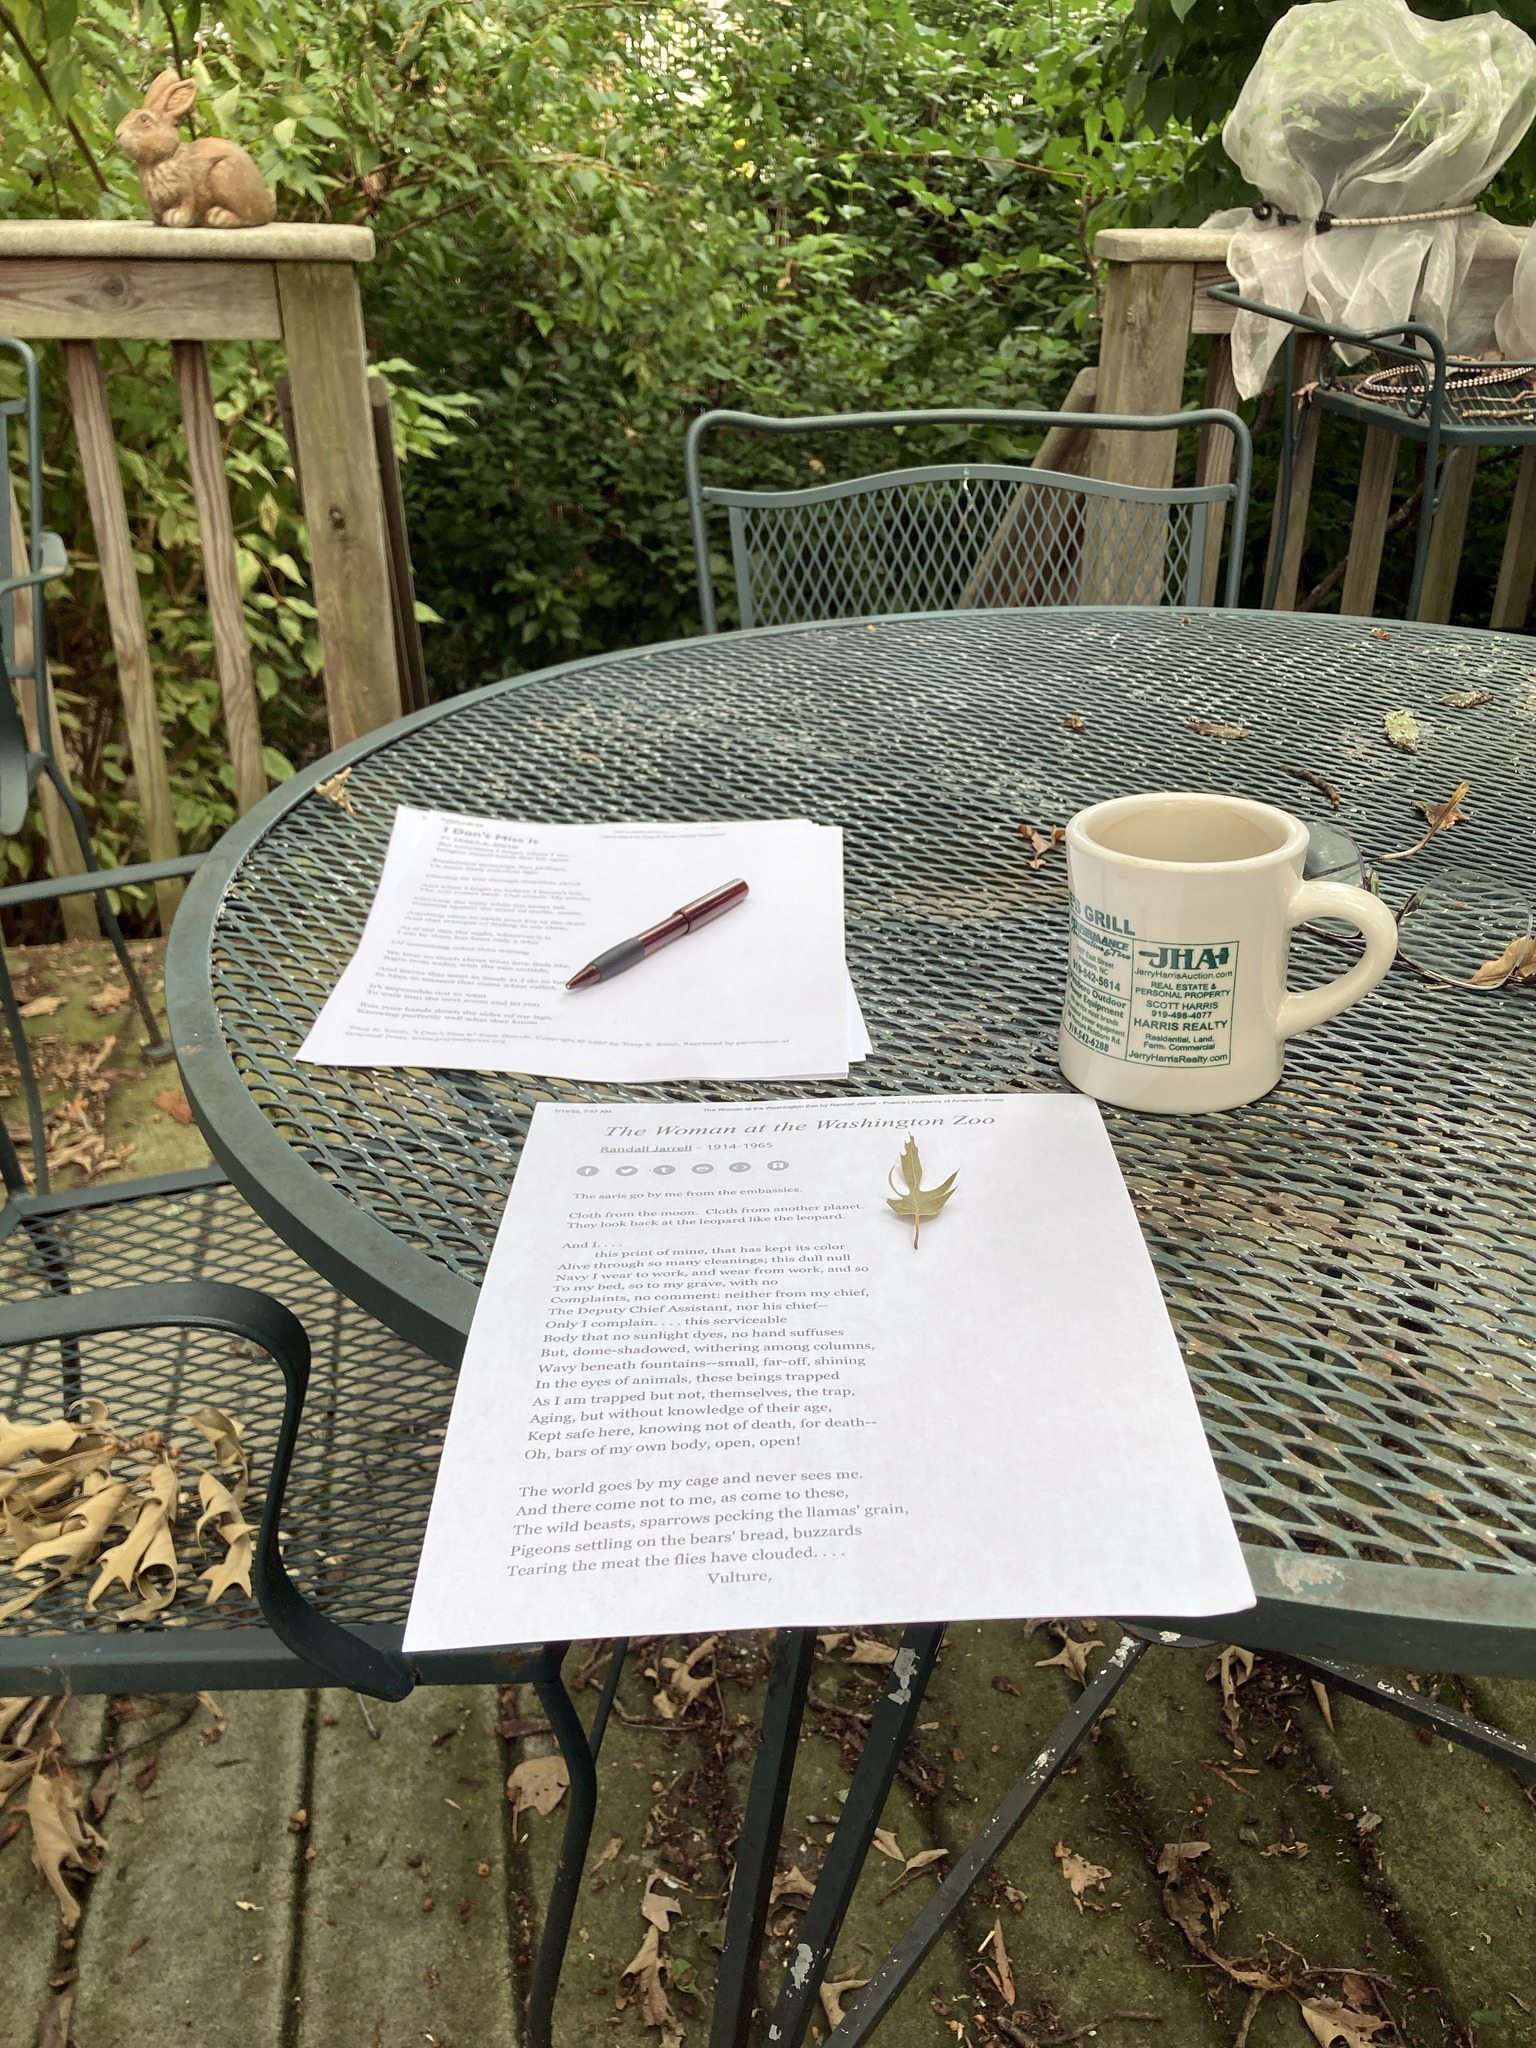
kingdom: Plantae
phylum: Tracheophyta
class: Magnoliopsida
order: Fagales
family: Fagaceae
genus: Quercus
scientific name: Quercus falcata
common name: Southern red oak
